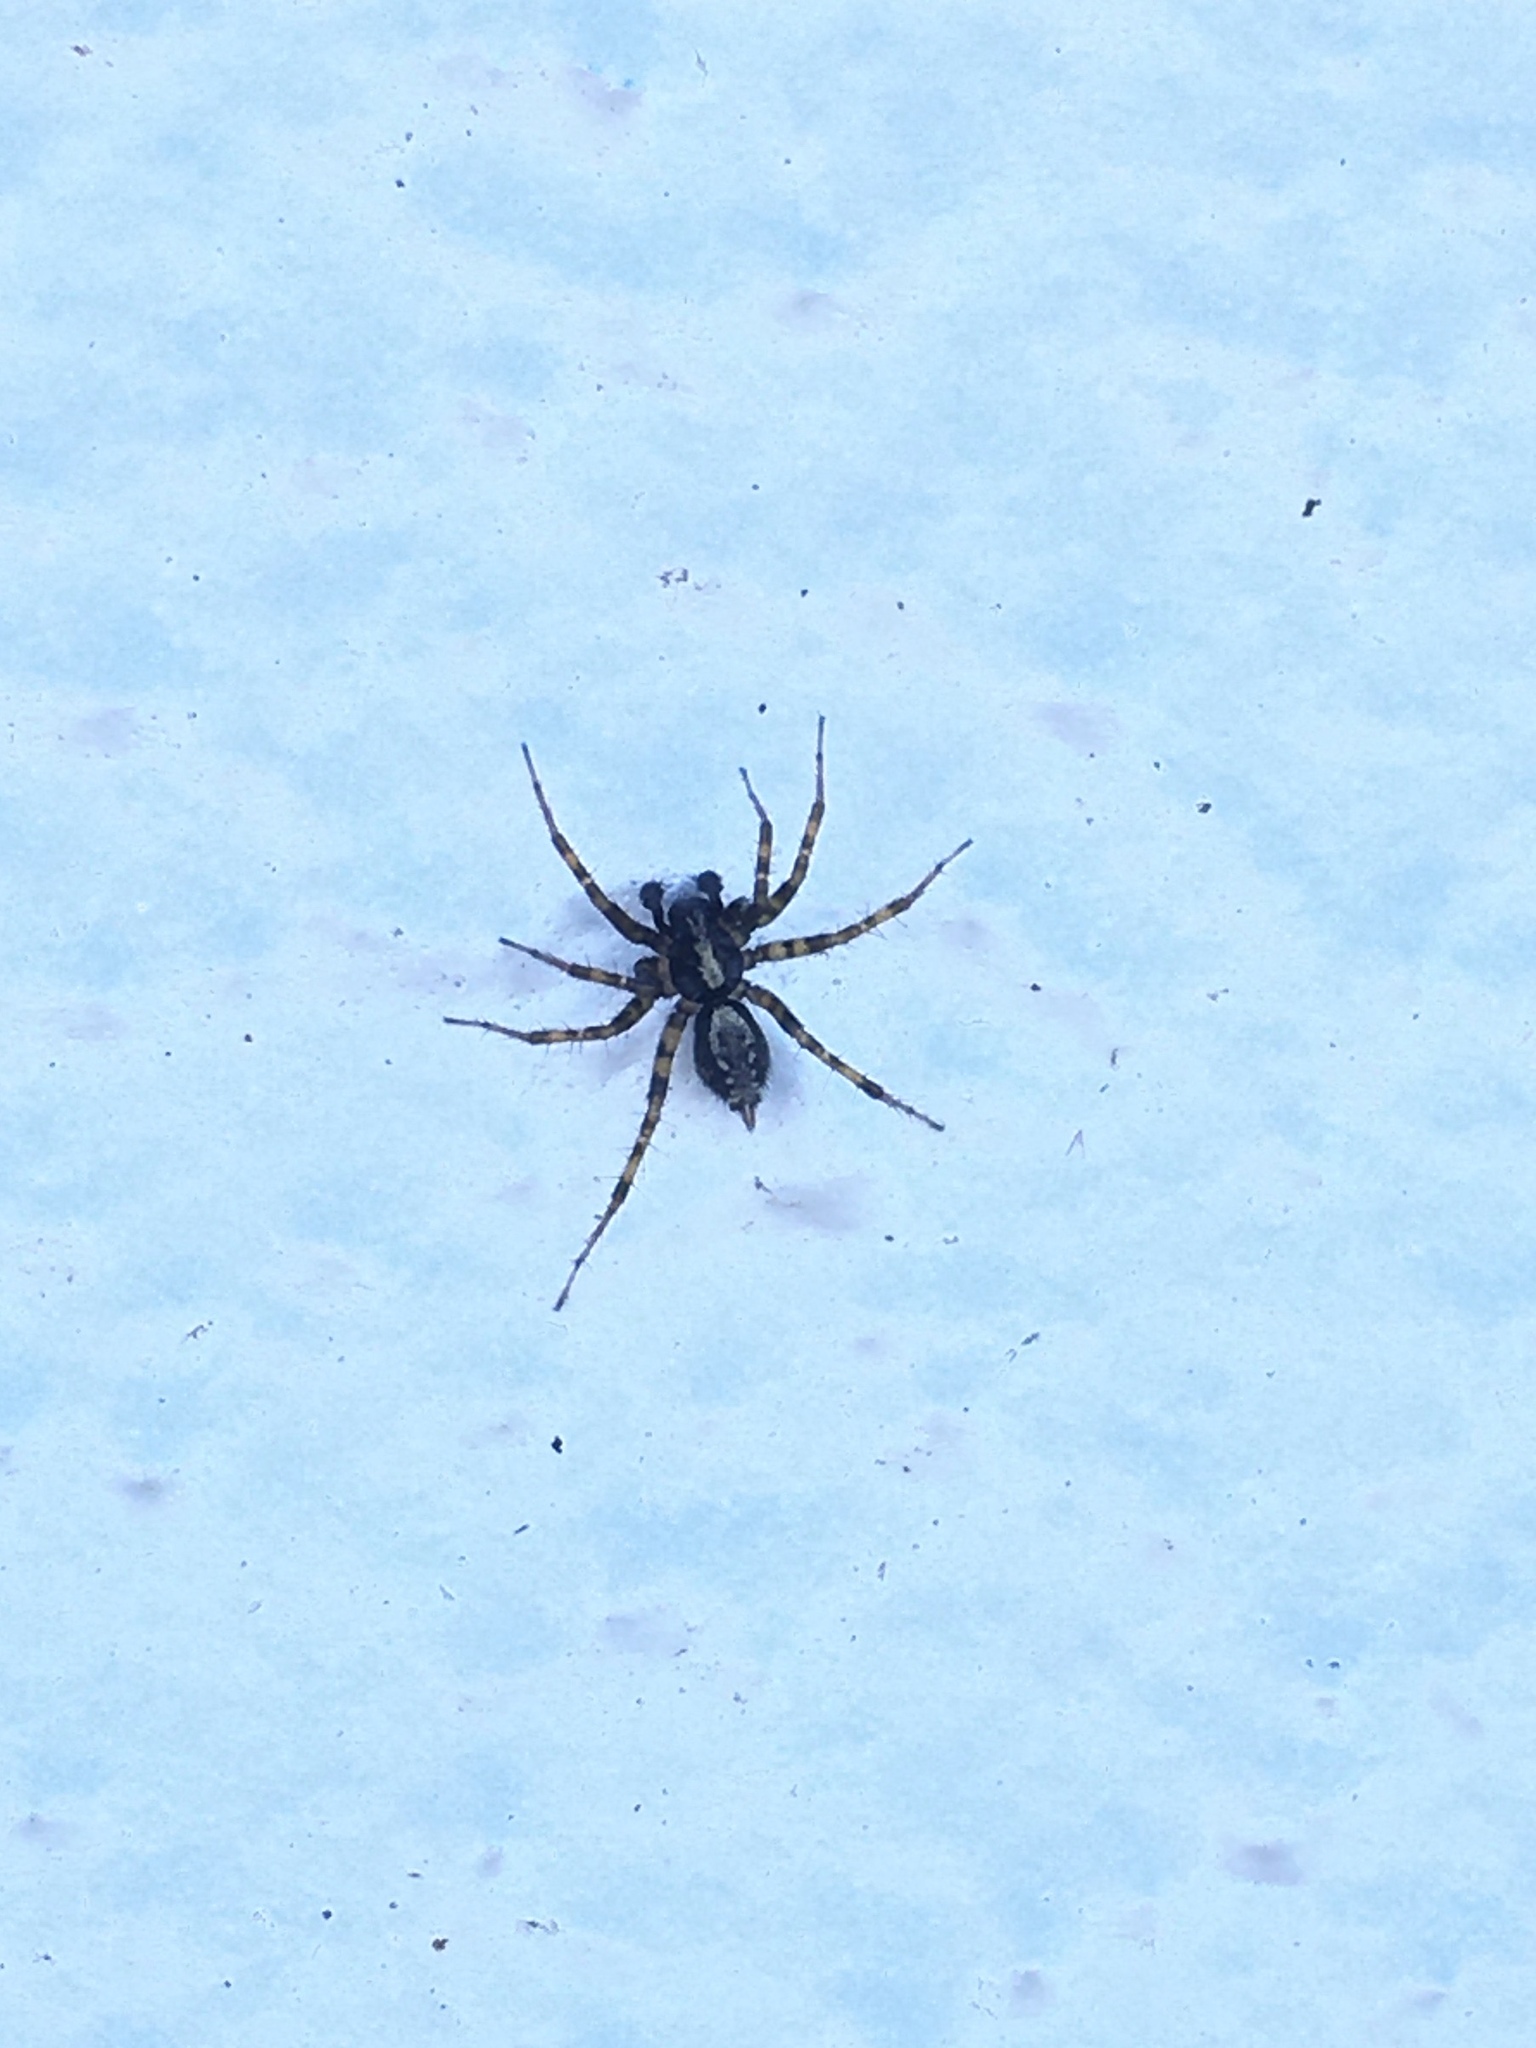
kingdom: Animalia
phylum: Arthropoda
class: Arachnida
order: Araneae
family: Agelenidae
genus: Textrix
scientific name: Textrix denticulata
